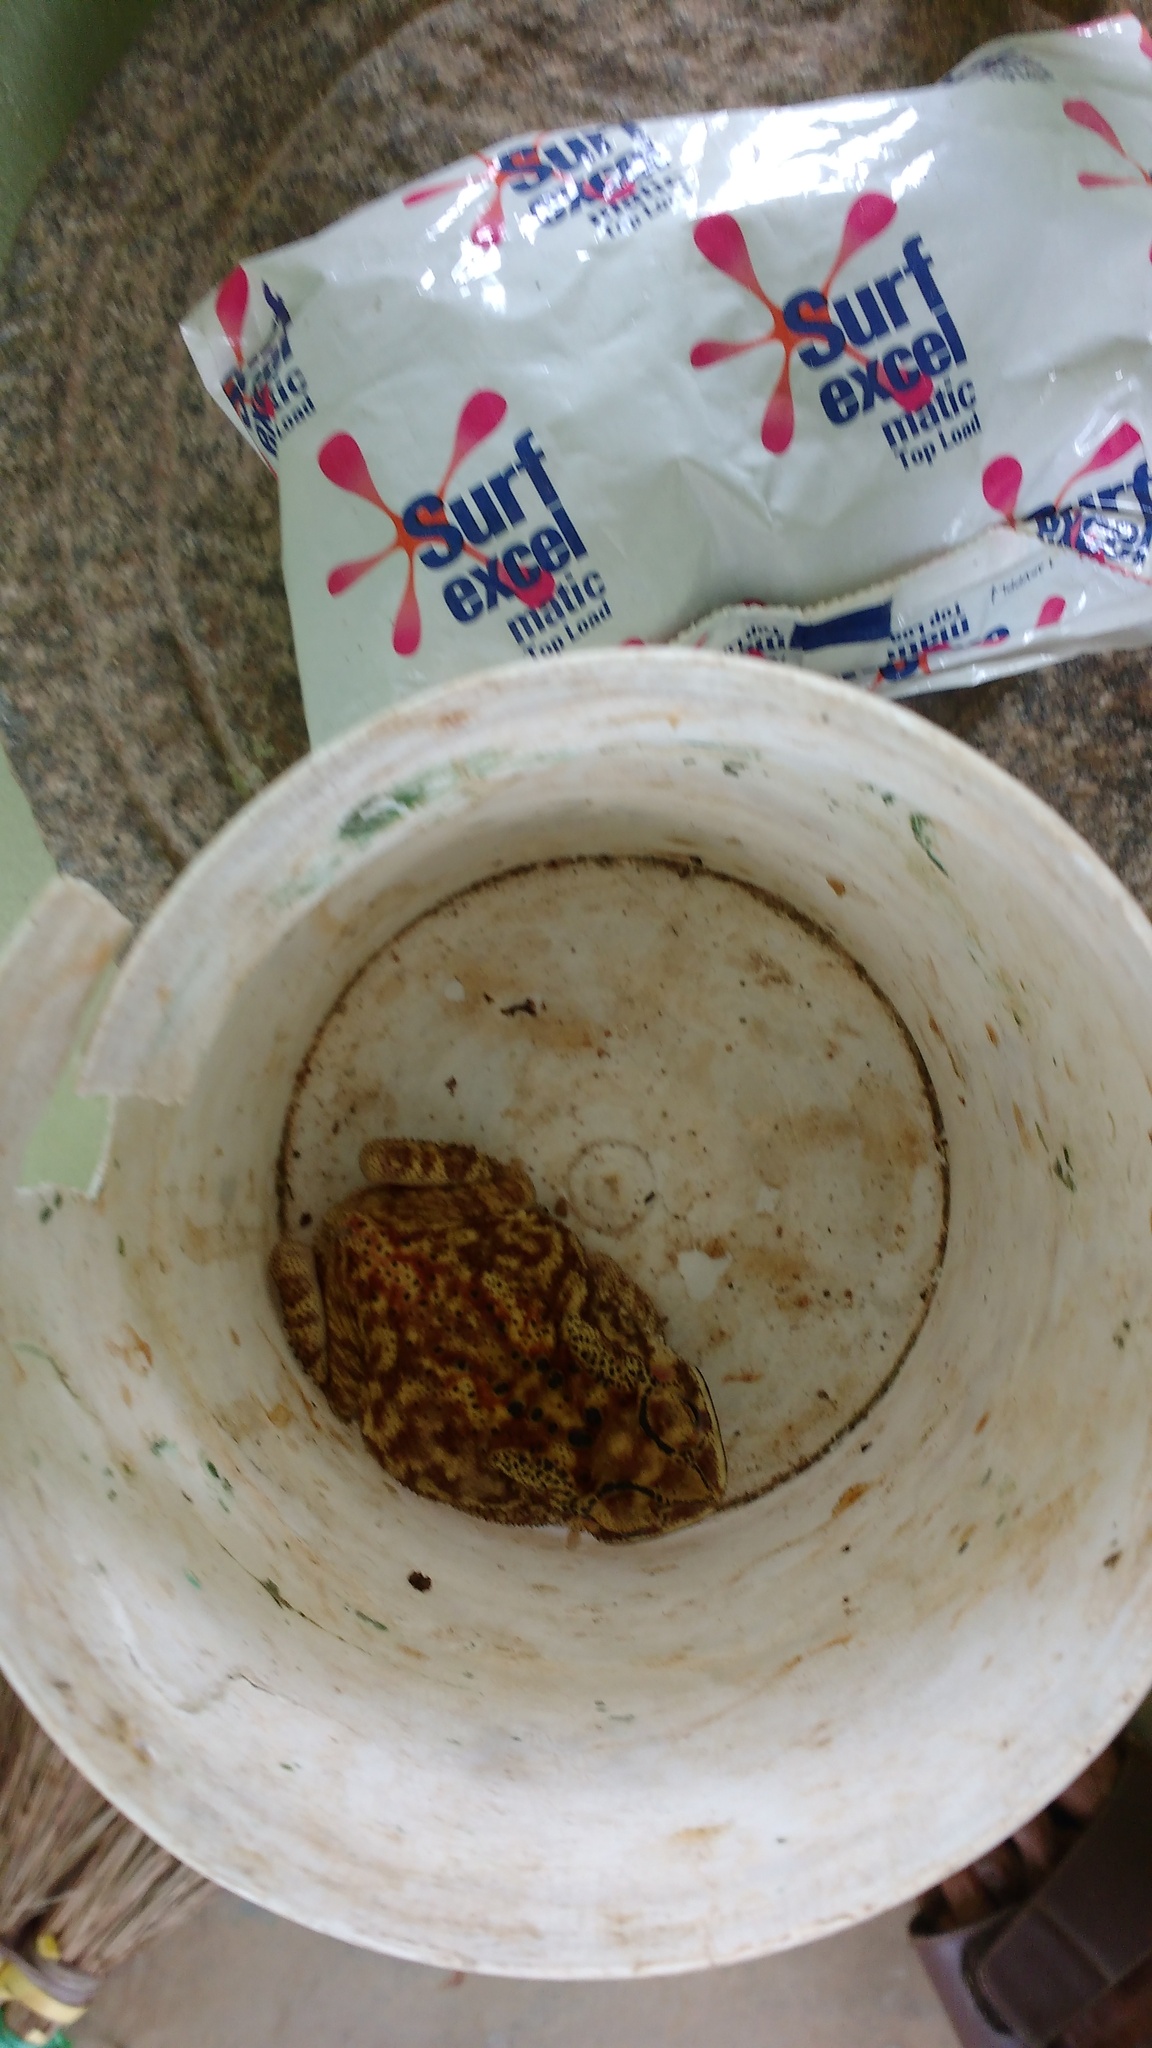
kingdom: Animalia
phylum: Chordata
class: Amphibia
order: Anura
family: Bufonidae
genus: Duttaphrynus
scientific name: Duttaphrynus melanostictus
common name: Common sunda toad
